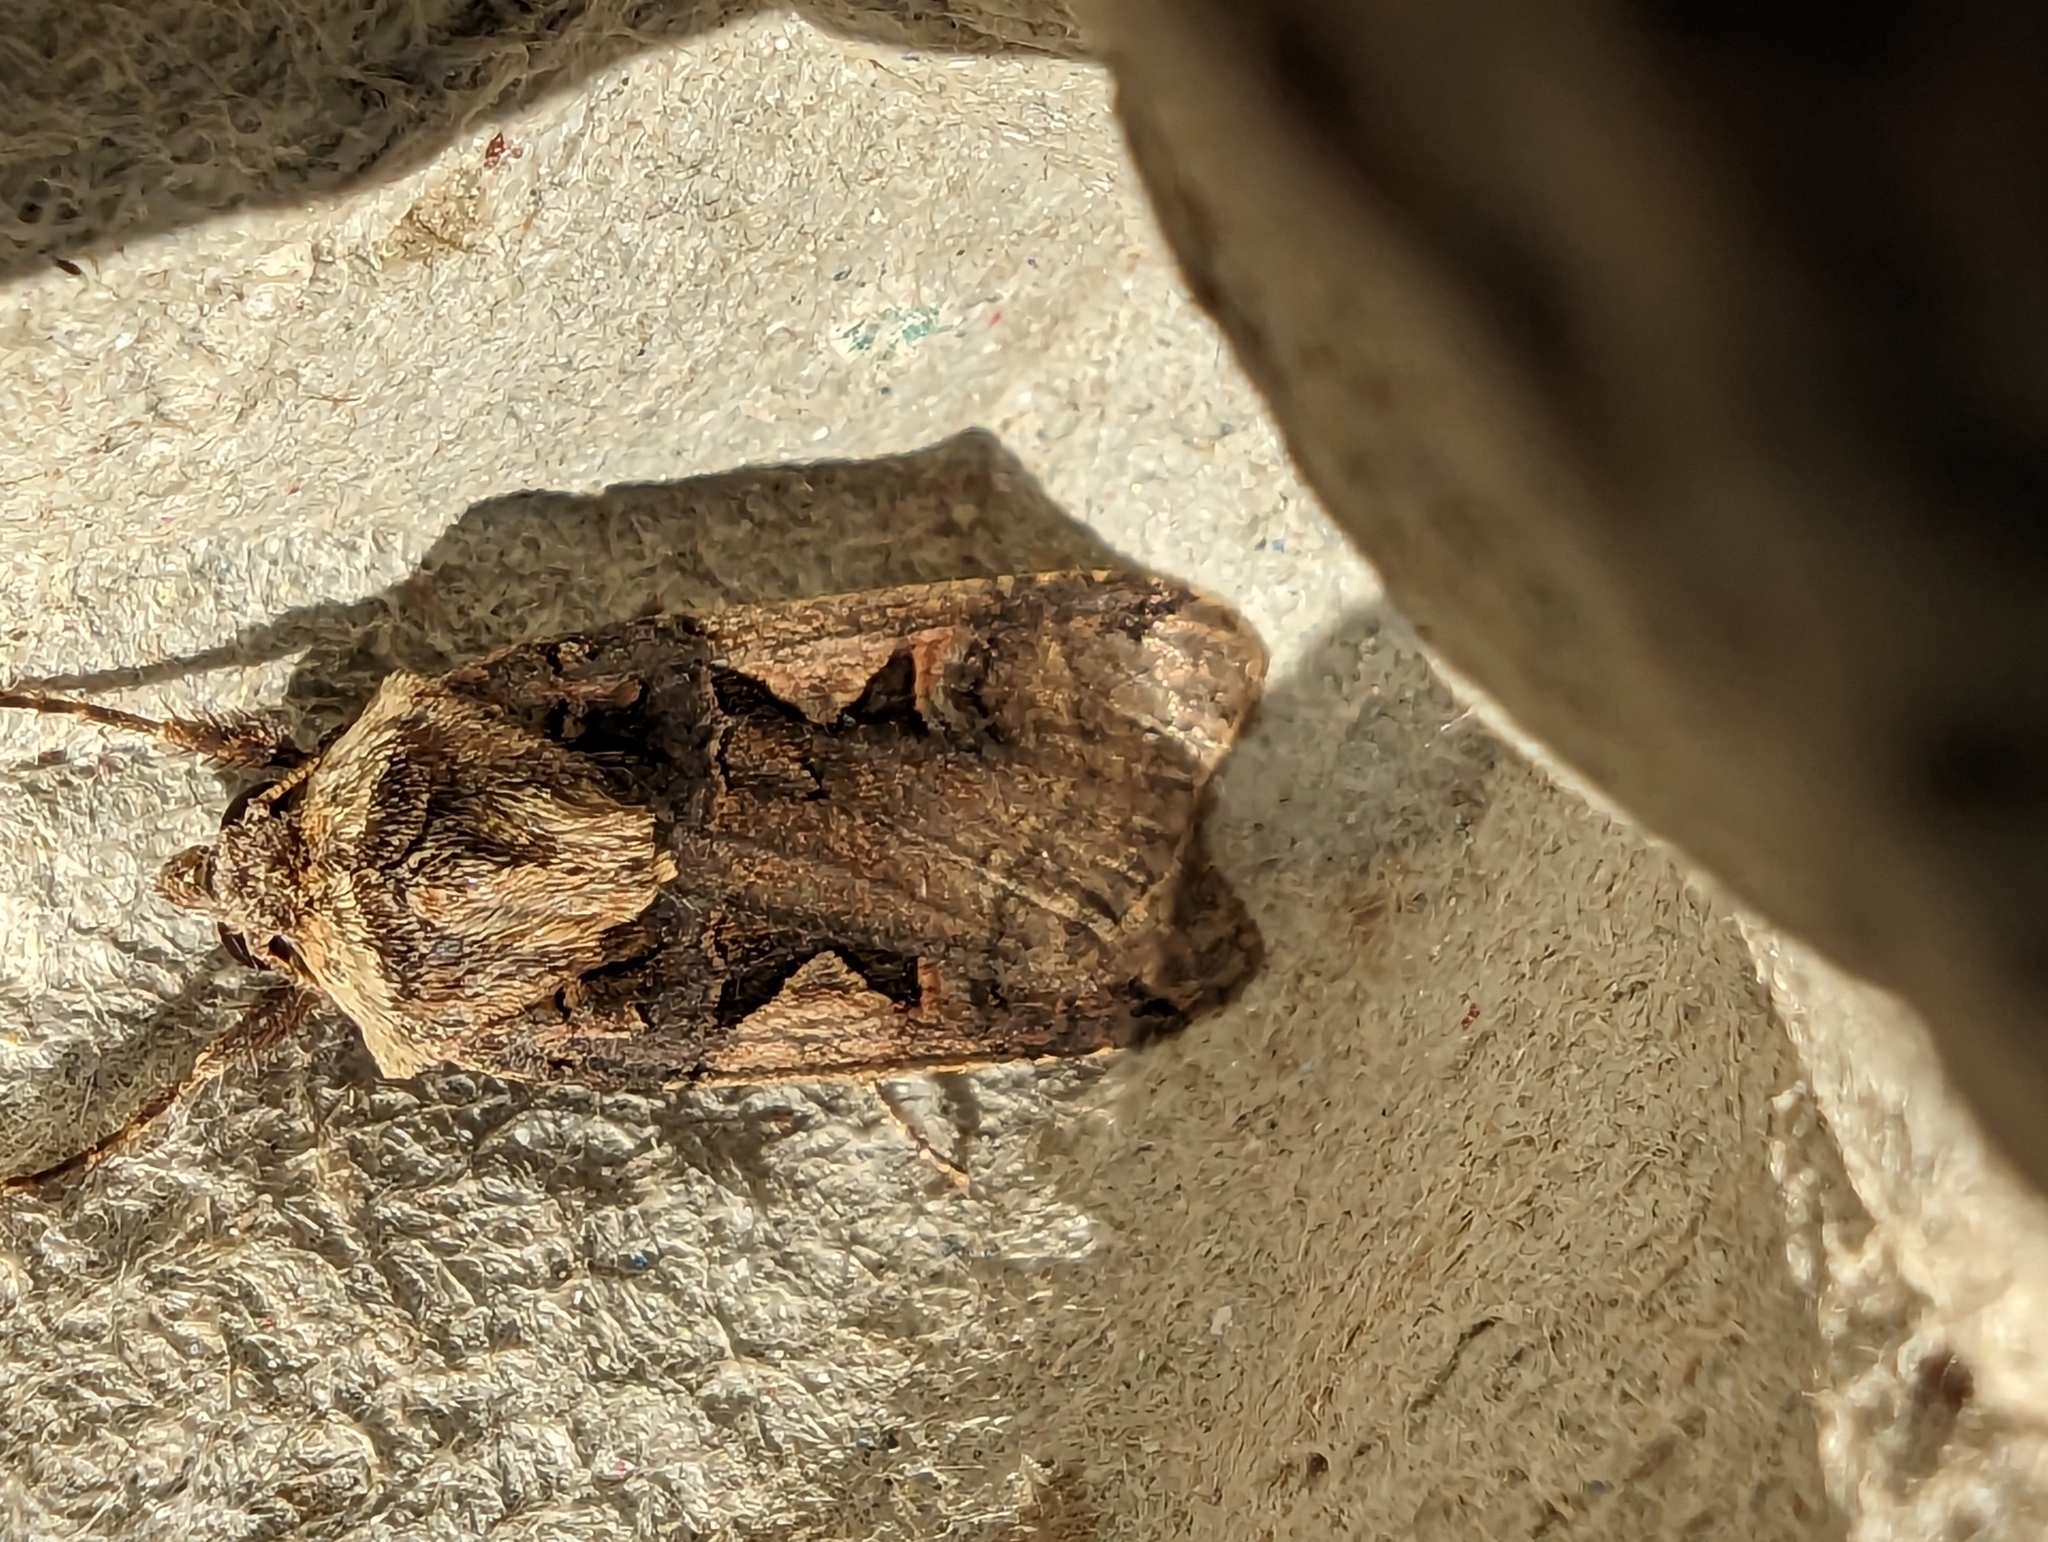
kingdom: Animalia
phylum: Arthropoda
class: Insecta
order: Lepidoptera
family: Noctuidae
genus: Xestia
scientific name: Xestia c-nigrum
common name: Setaceous hebrew character
